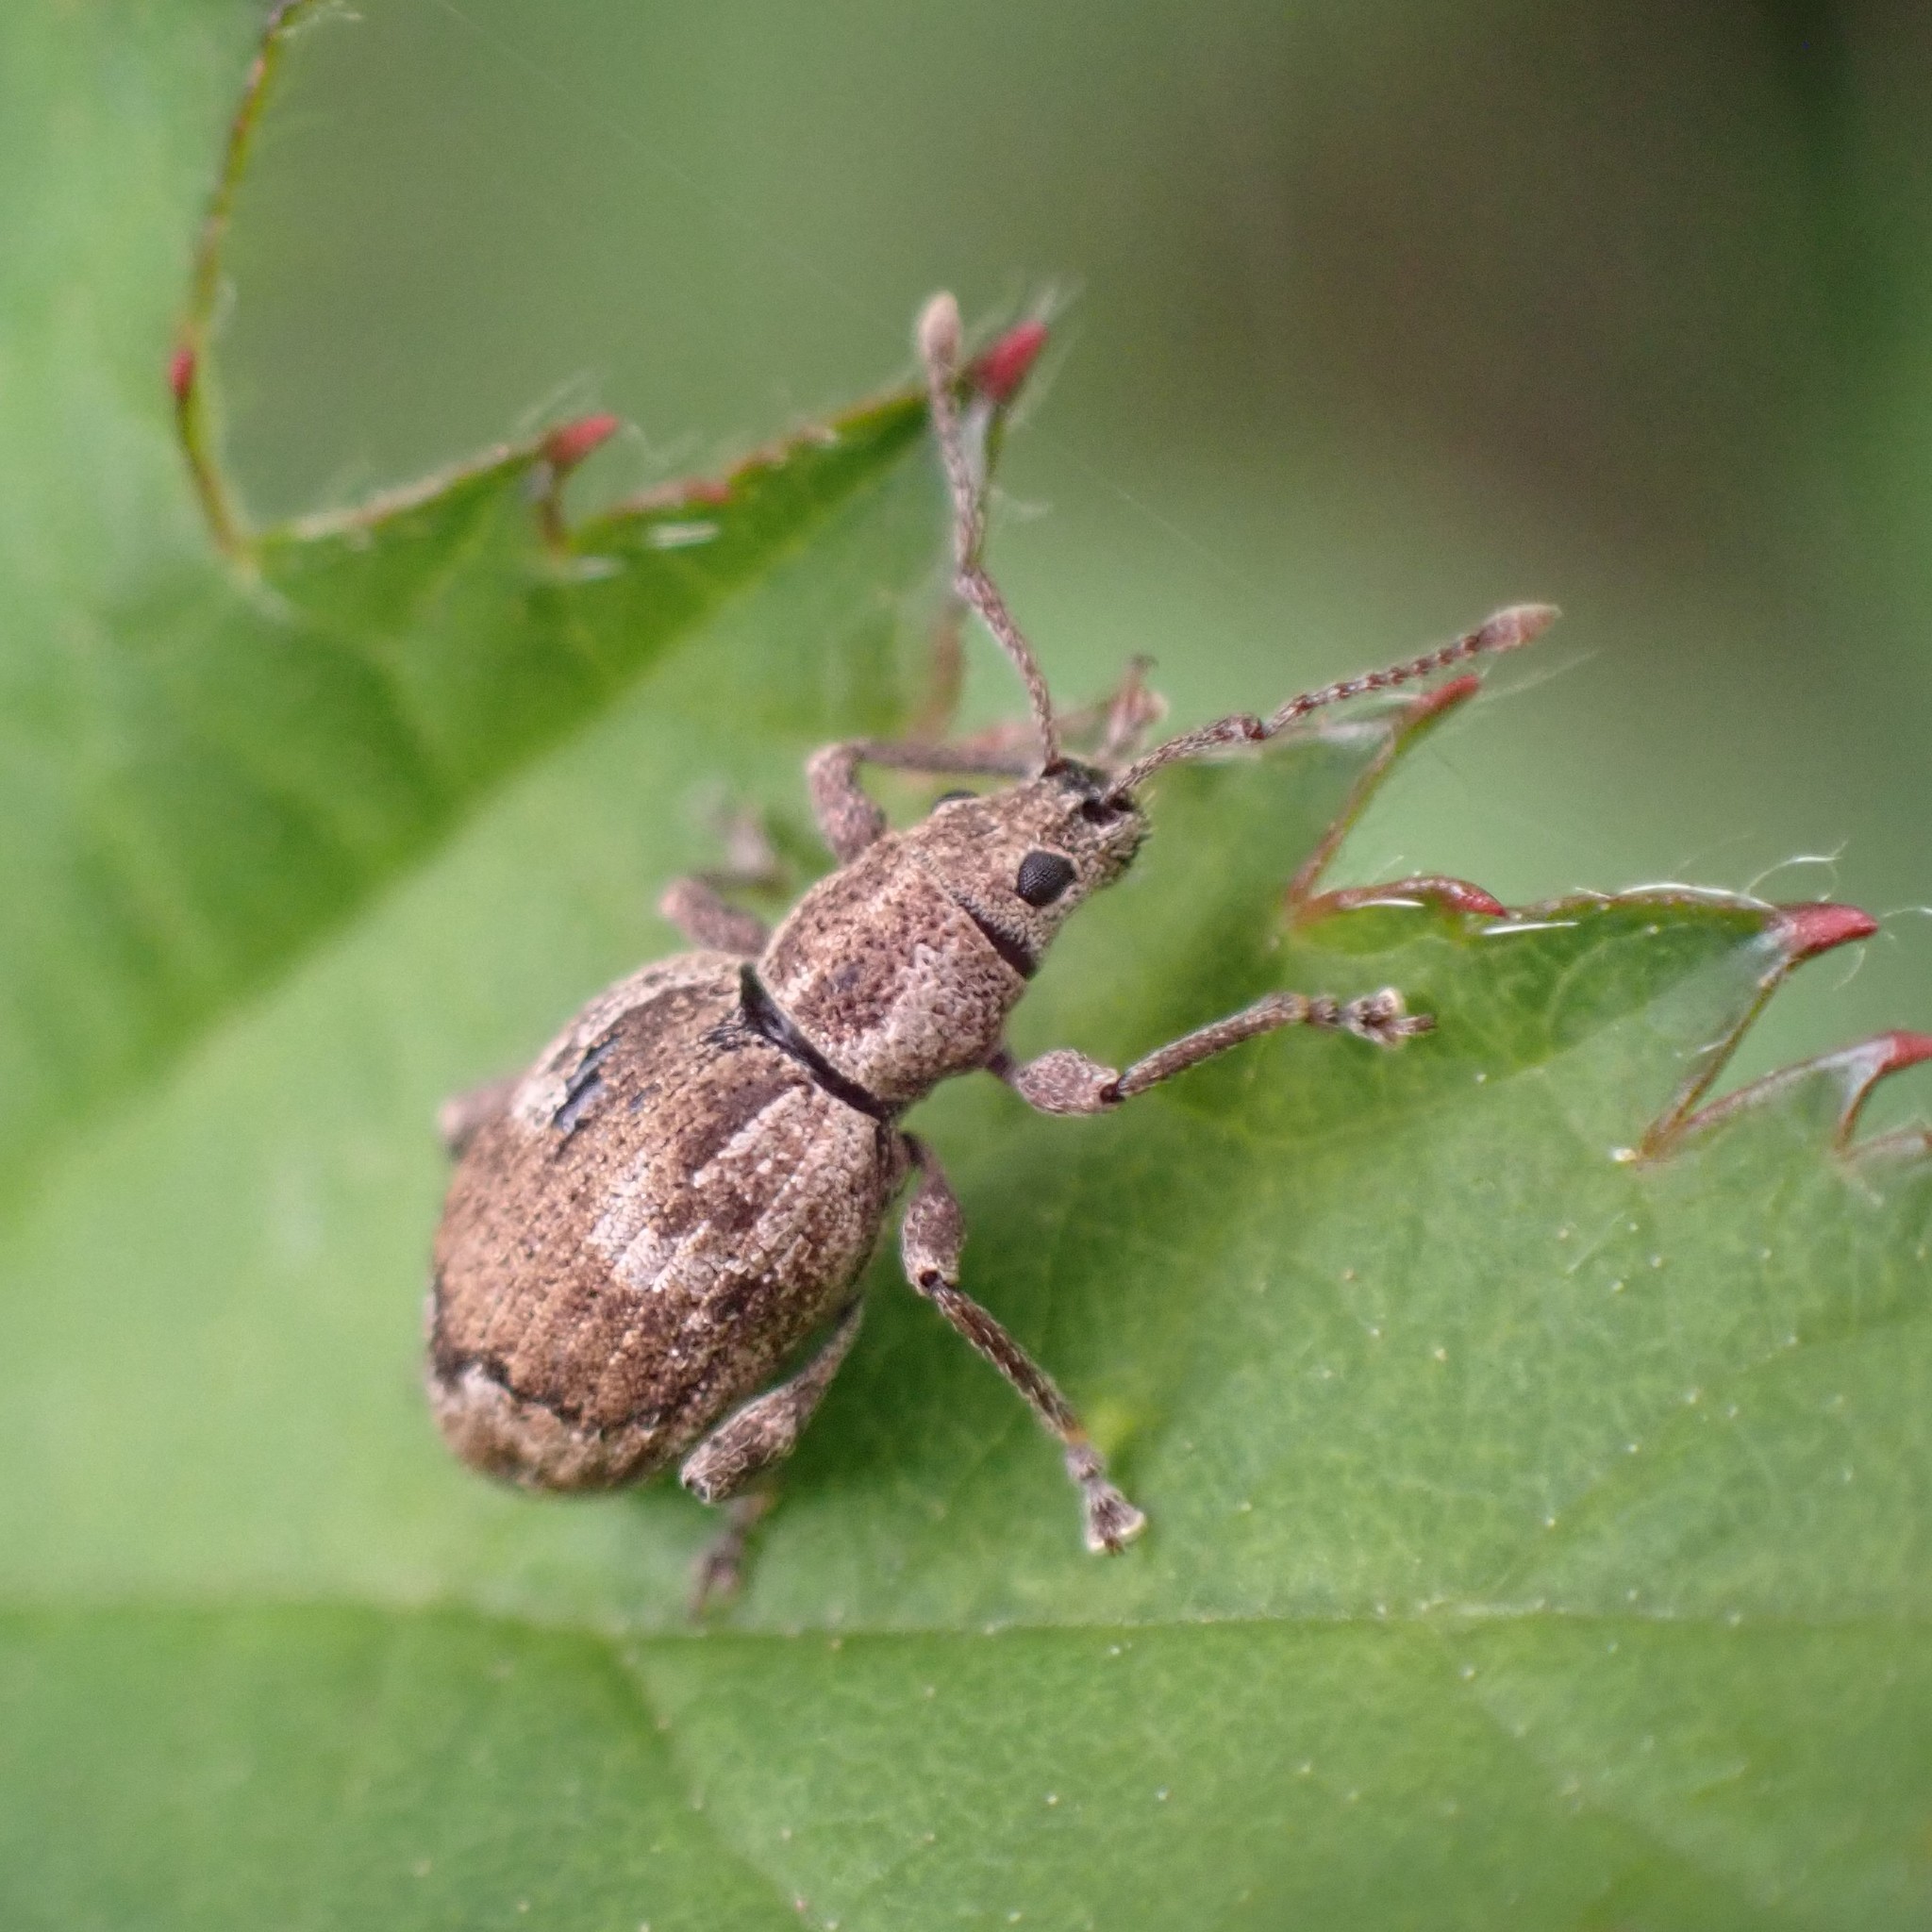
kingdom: Animalia
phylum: Arthropoda
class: Insecta
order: Coleoptera
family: Curculionidae
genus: Sciopithes
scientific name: Sciopithes obscurus
